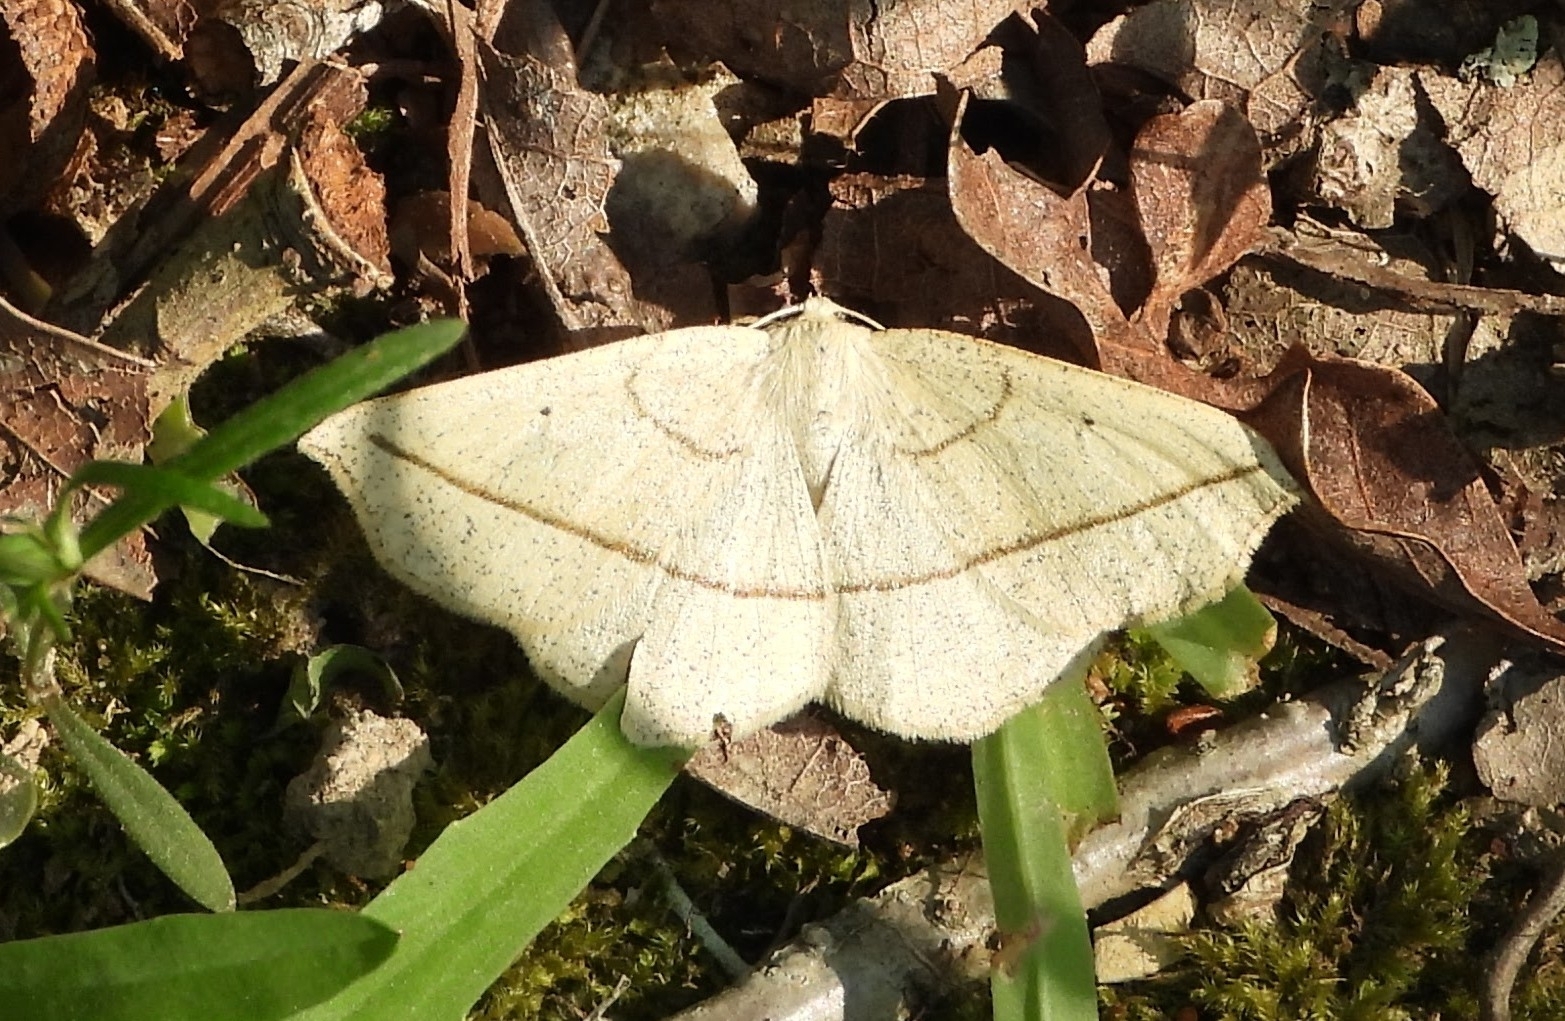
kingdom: Animalia
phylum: Arthropoda
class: Insecta
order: Lepidoptera
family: Geometridae
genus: Eusarca
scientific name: Eusarca confusaria
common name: Confused eusarca
